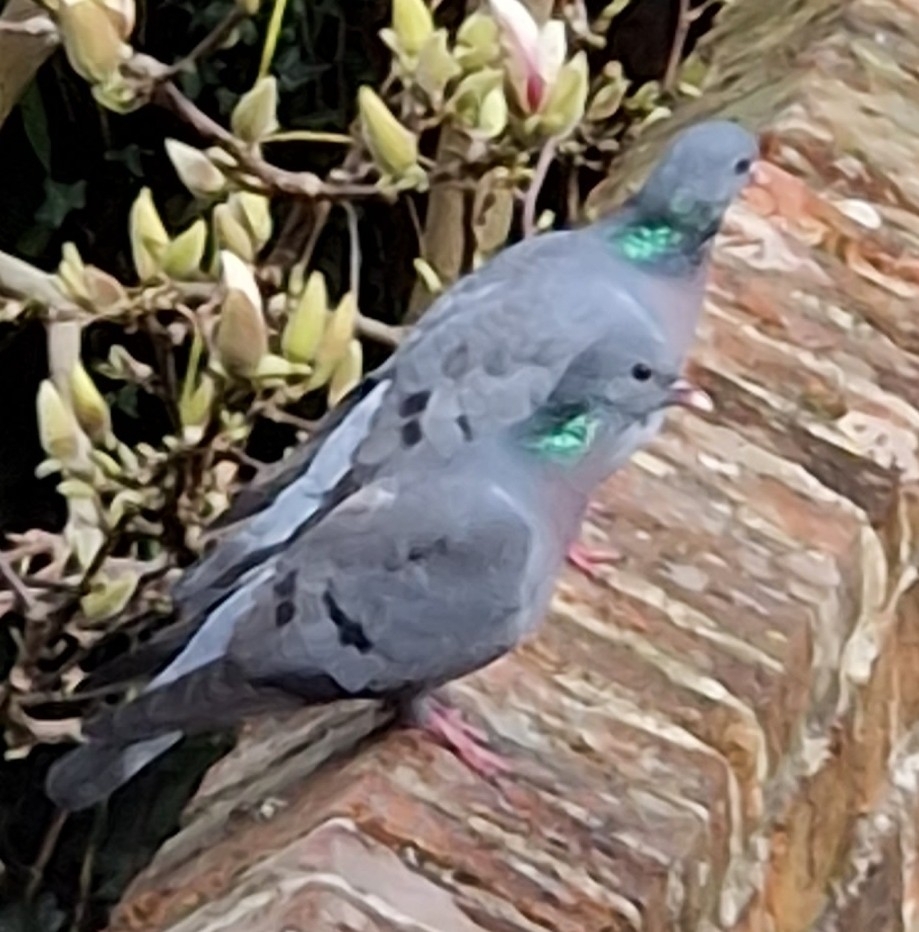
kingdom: Animalia
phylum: Chordata
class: Aves
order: Columbiformes
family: Columbidae
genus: Columba
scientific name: Columba oenas
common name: Stock dove
